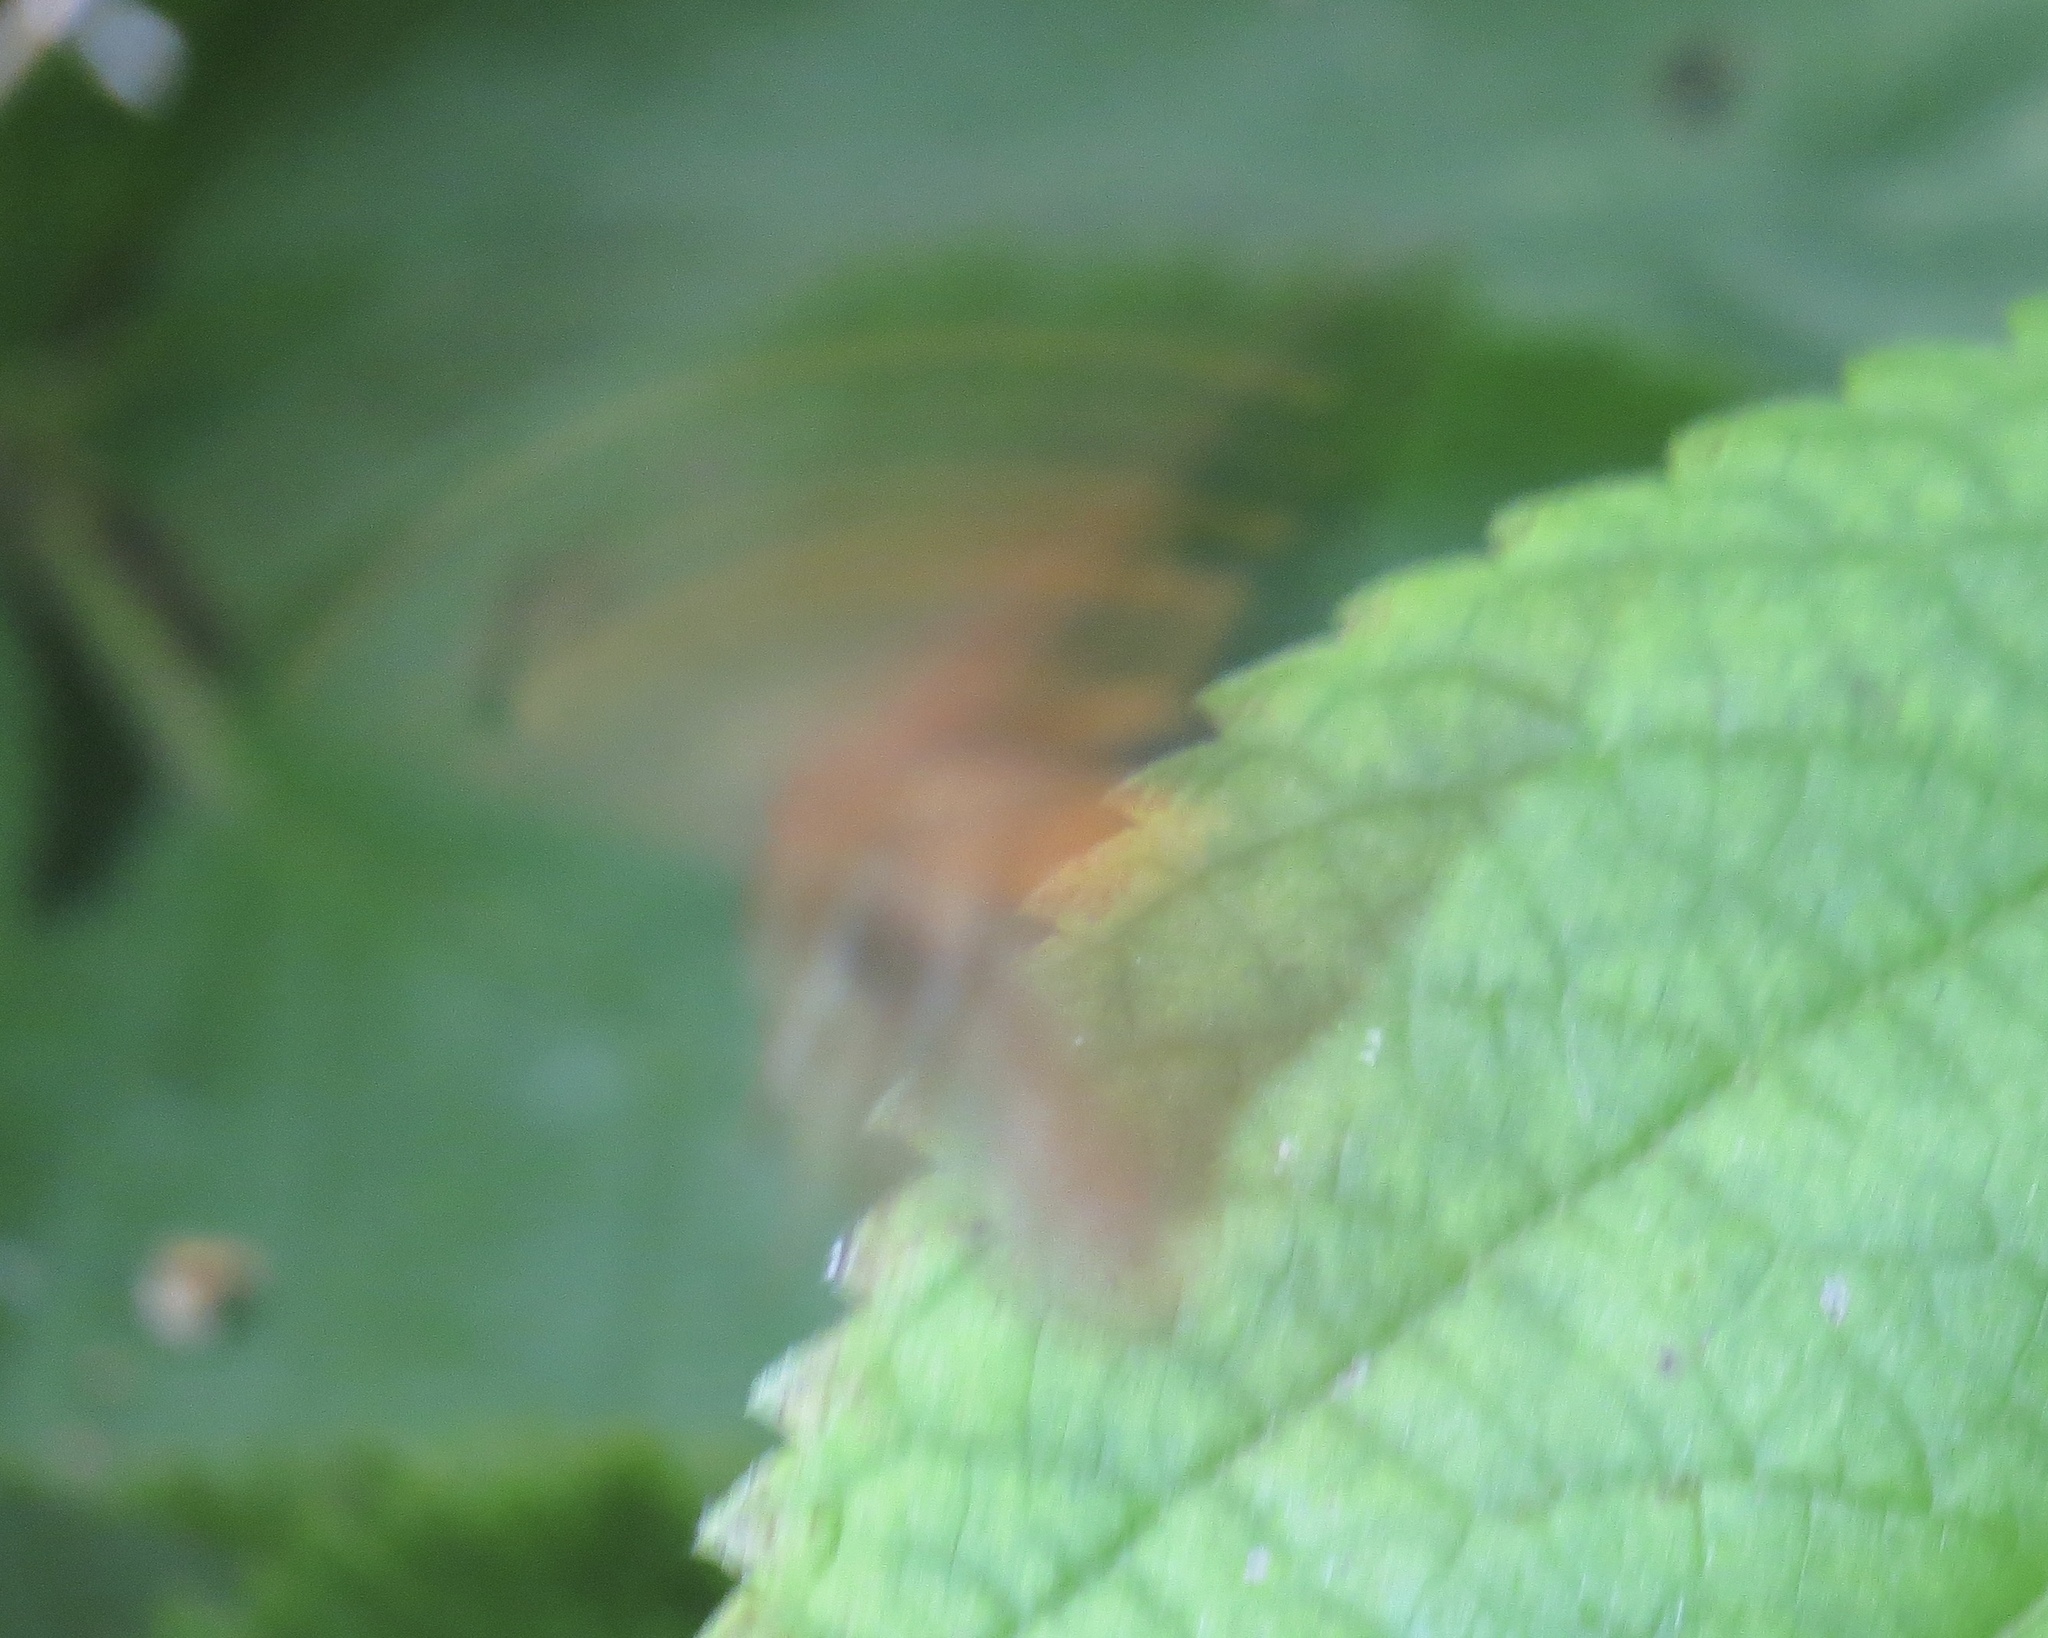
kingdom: Animalia
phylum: Arthropoda
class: Insecta
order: Lepidoptera
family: Hesperiidae
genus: Poanes
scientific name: Poanes viator
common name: Broad-winged skipper
